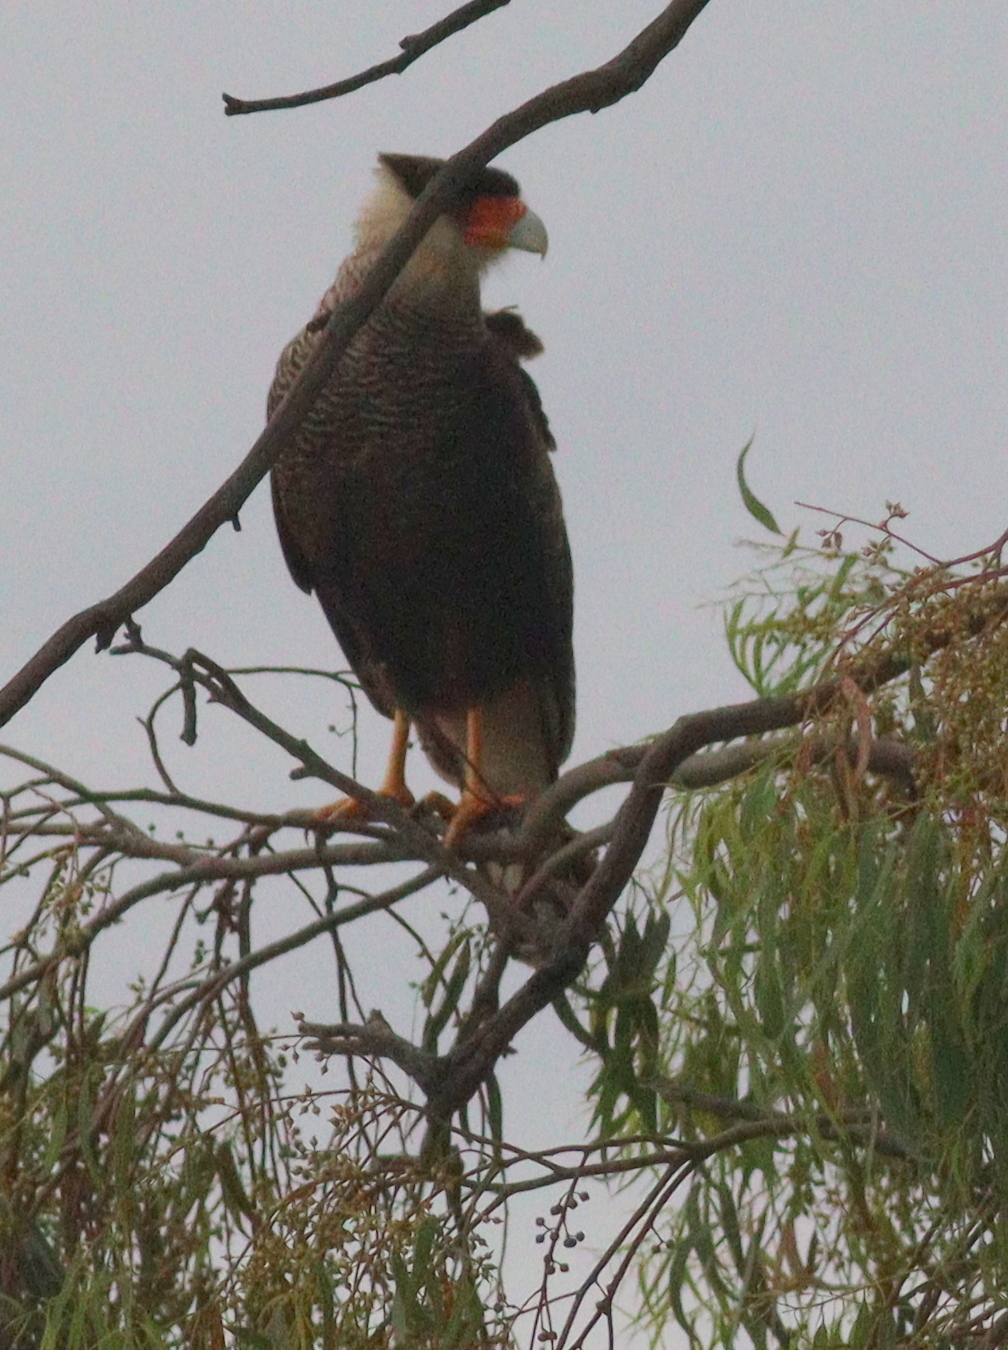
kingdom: Animalia
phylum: Chordata
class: Aves
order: Falconiformes
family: Falconidae
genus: Caracara
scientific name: Caracara plancus
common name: Southern caracara
